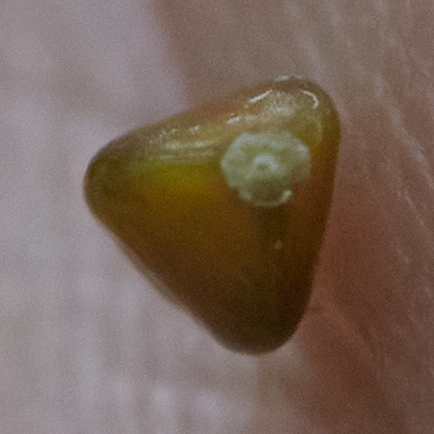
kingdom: Plantae
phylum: Tracheophyta
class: Liliopsida
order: Poales
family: Cyperaceae
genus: Carex
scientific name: Carex folliculata
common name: Northern long sedge
